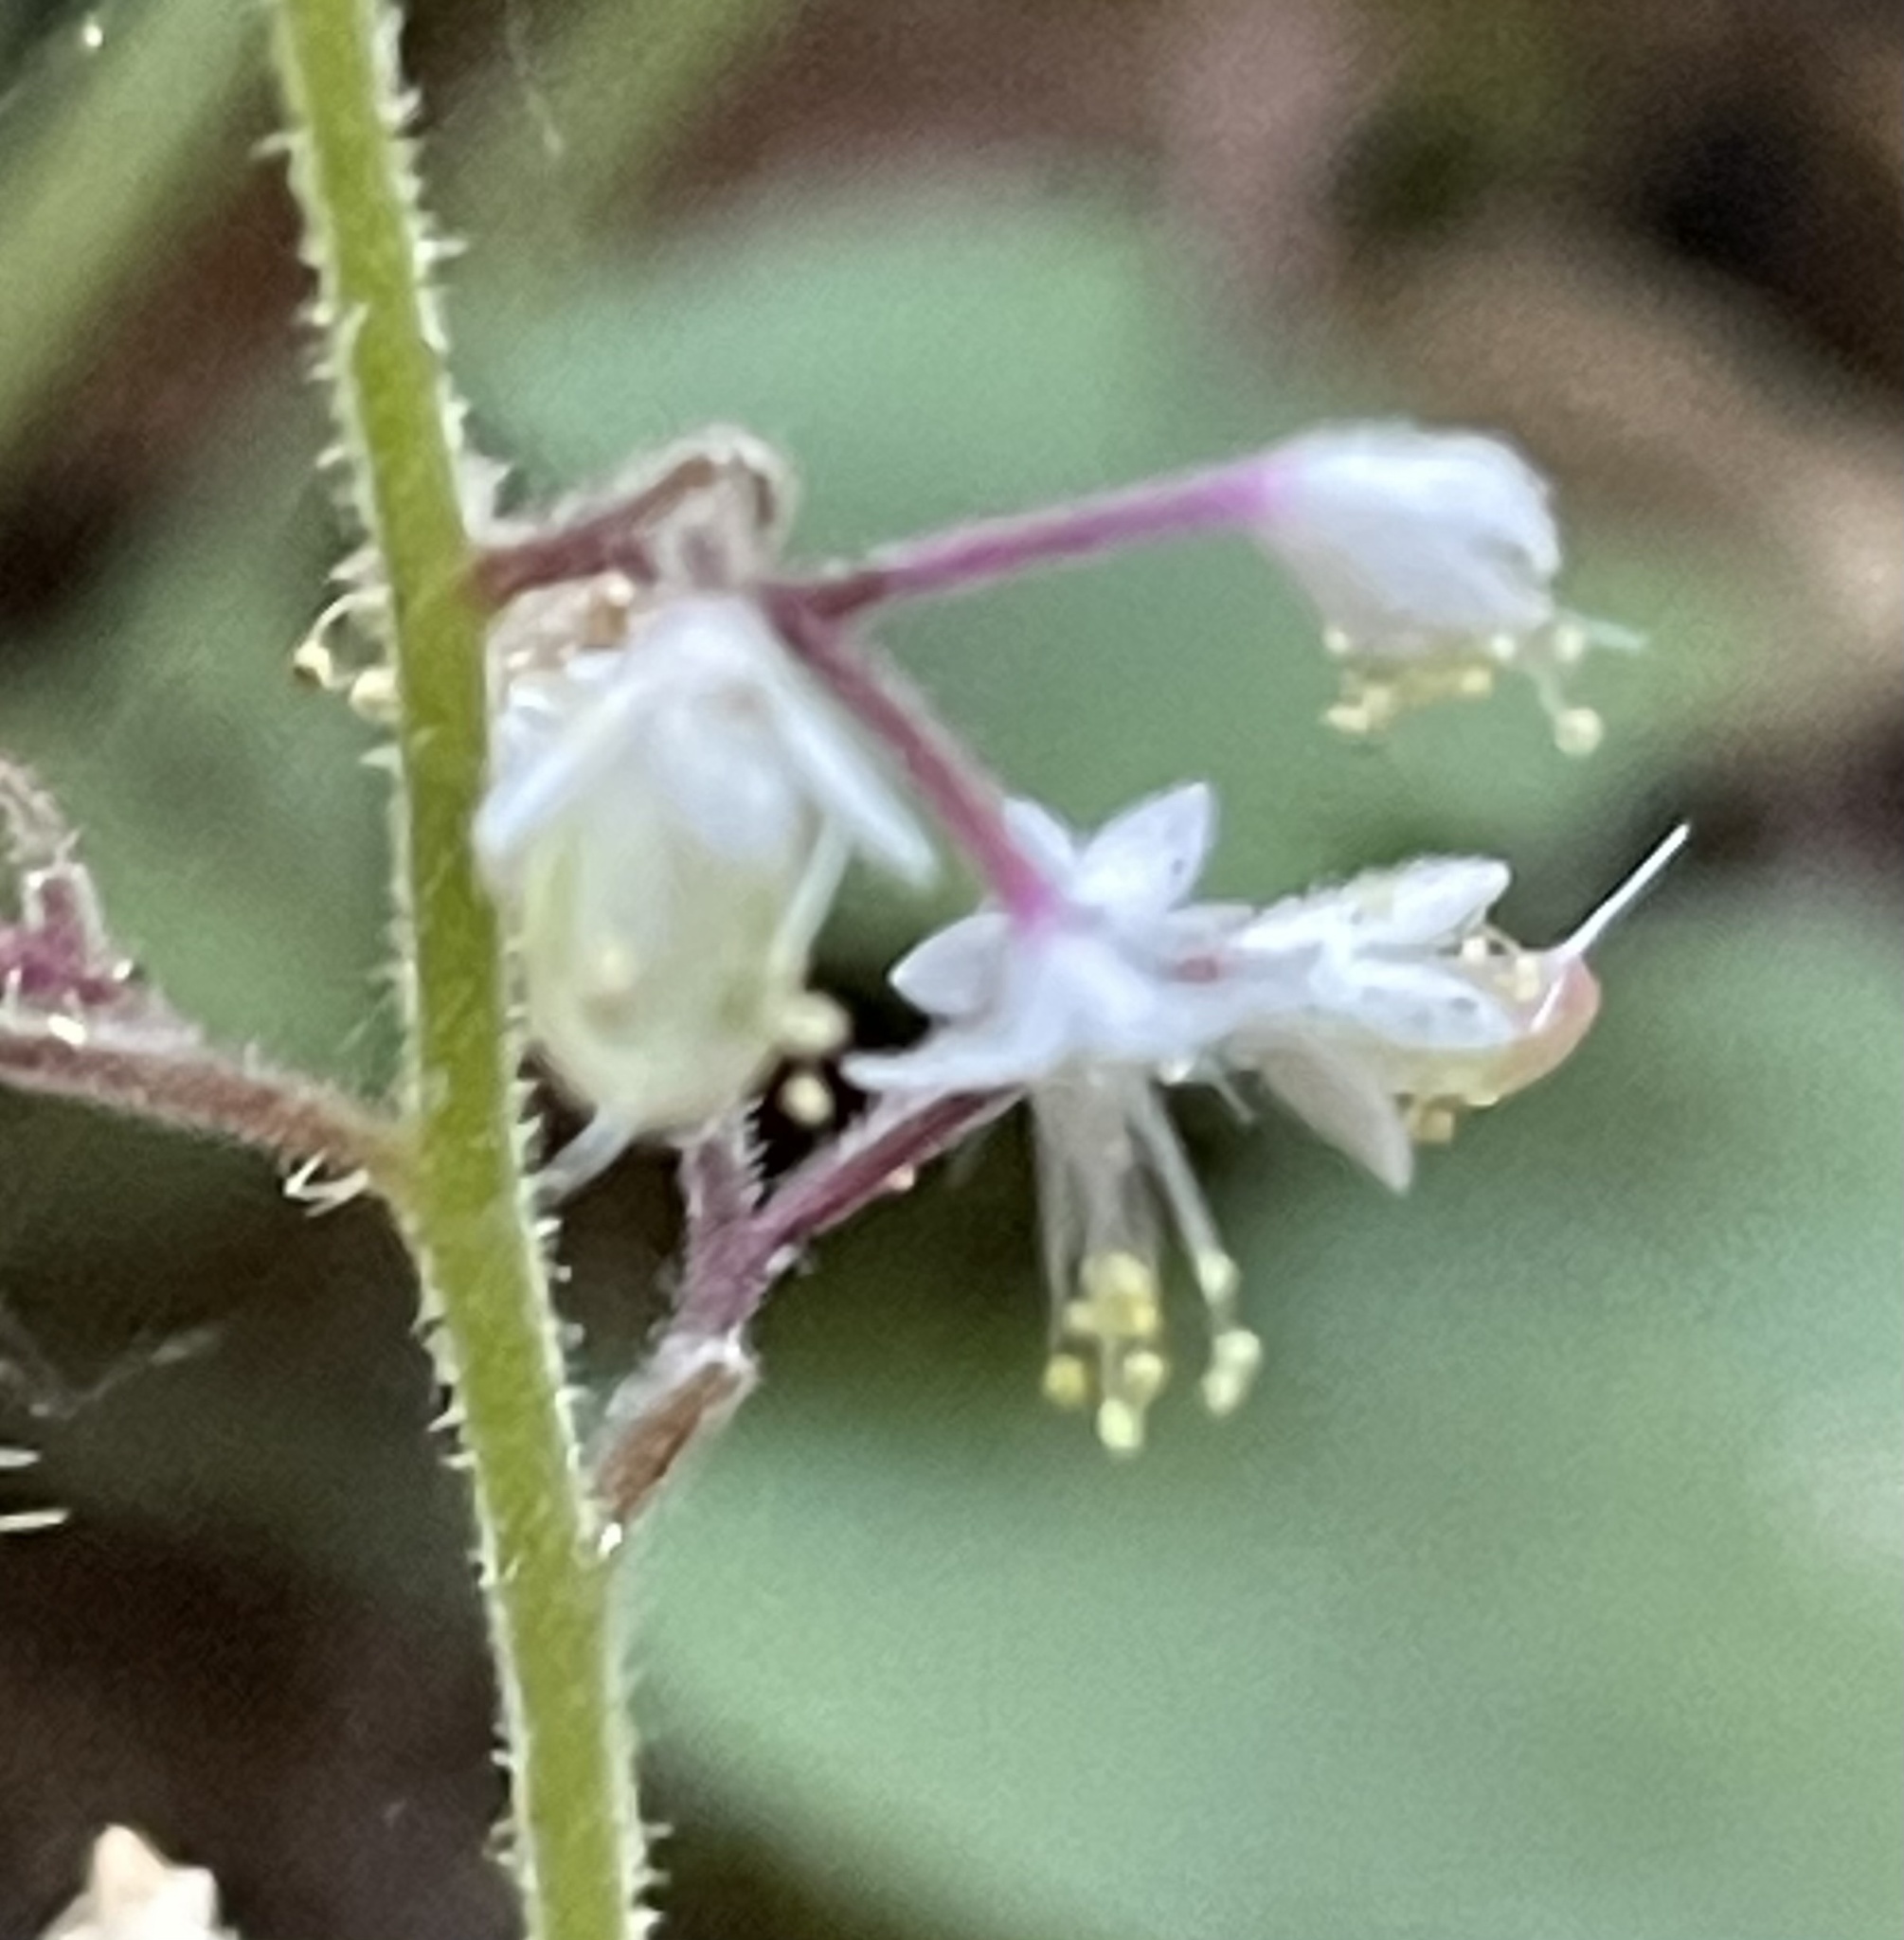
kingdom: Plantae
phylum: Tracheophyta
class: Magnoliopsida
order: Saxifragales
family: Saxifragaceae
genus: Tiarella
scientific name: Tiarella trifoliata
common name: Sugar-scoop
